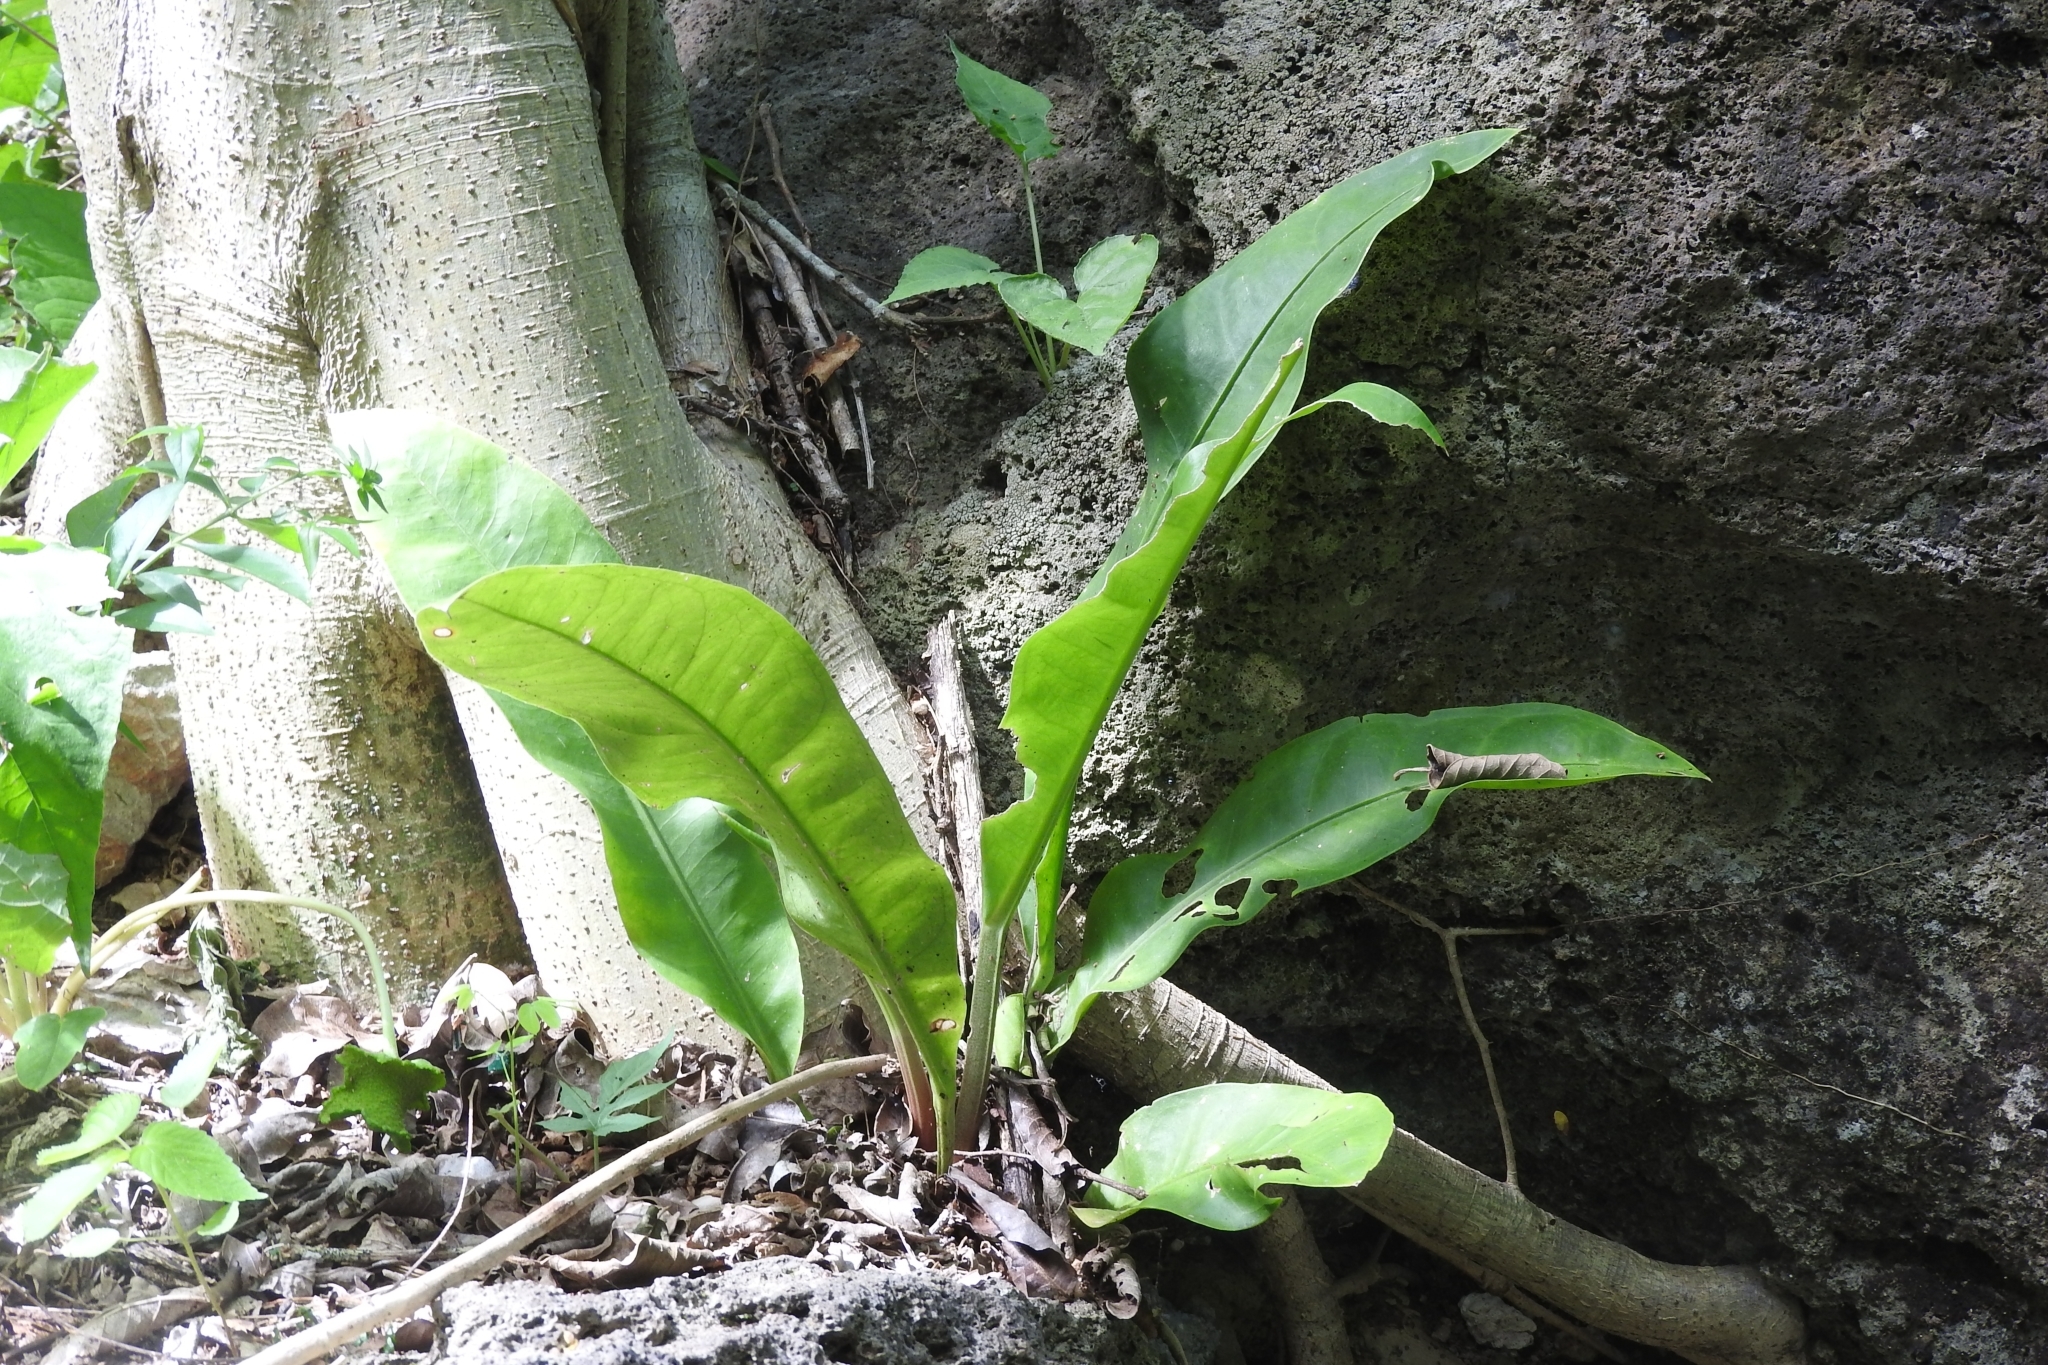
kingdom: Plantae
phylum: Tracheophyta
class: Liliopsida
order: Alismatales
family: Araceae
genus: Anthurium
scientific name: Anthurium schlechtendalii
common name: Laceleaf
